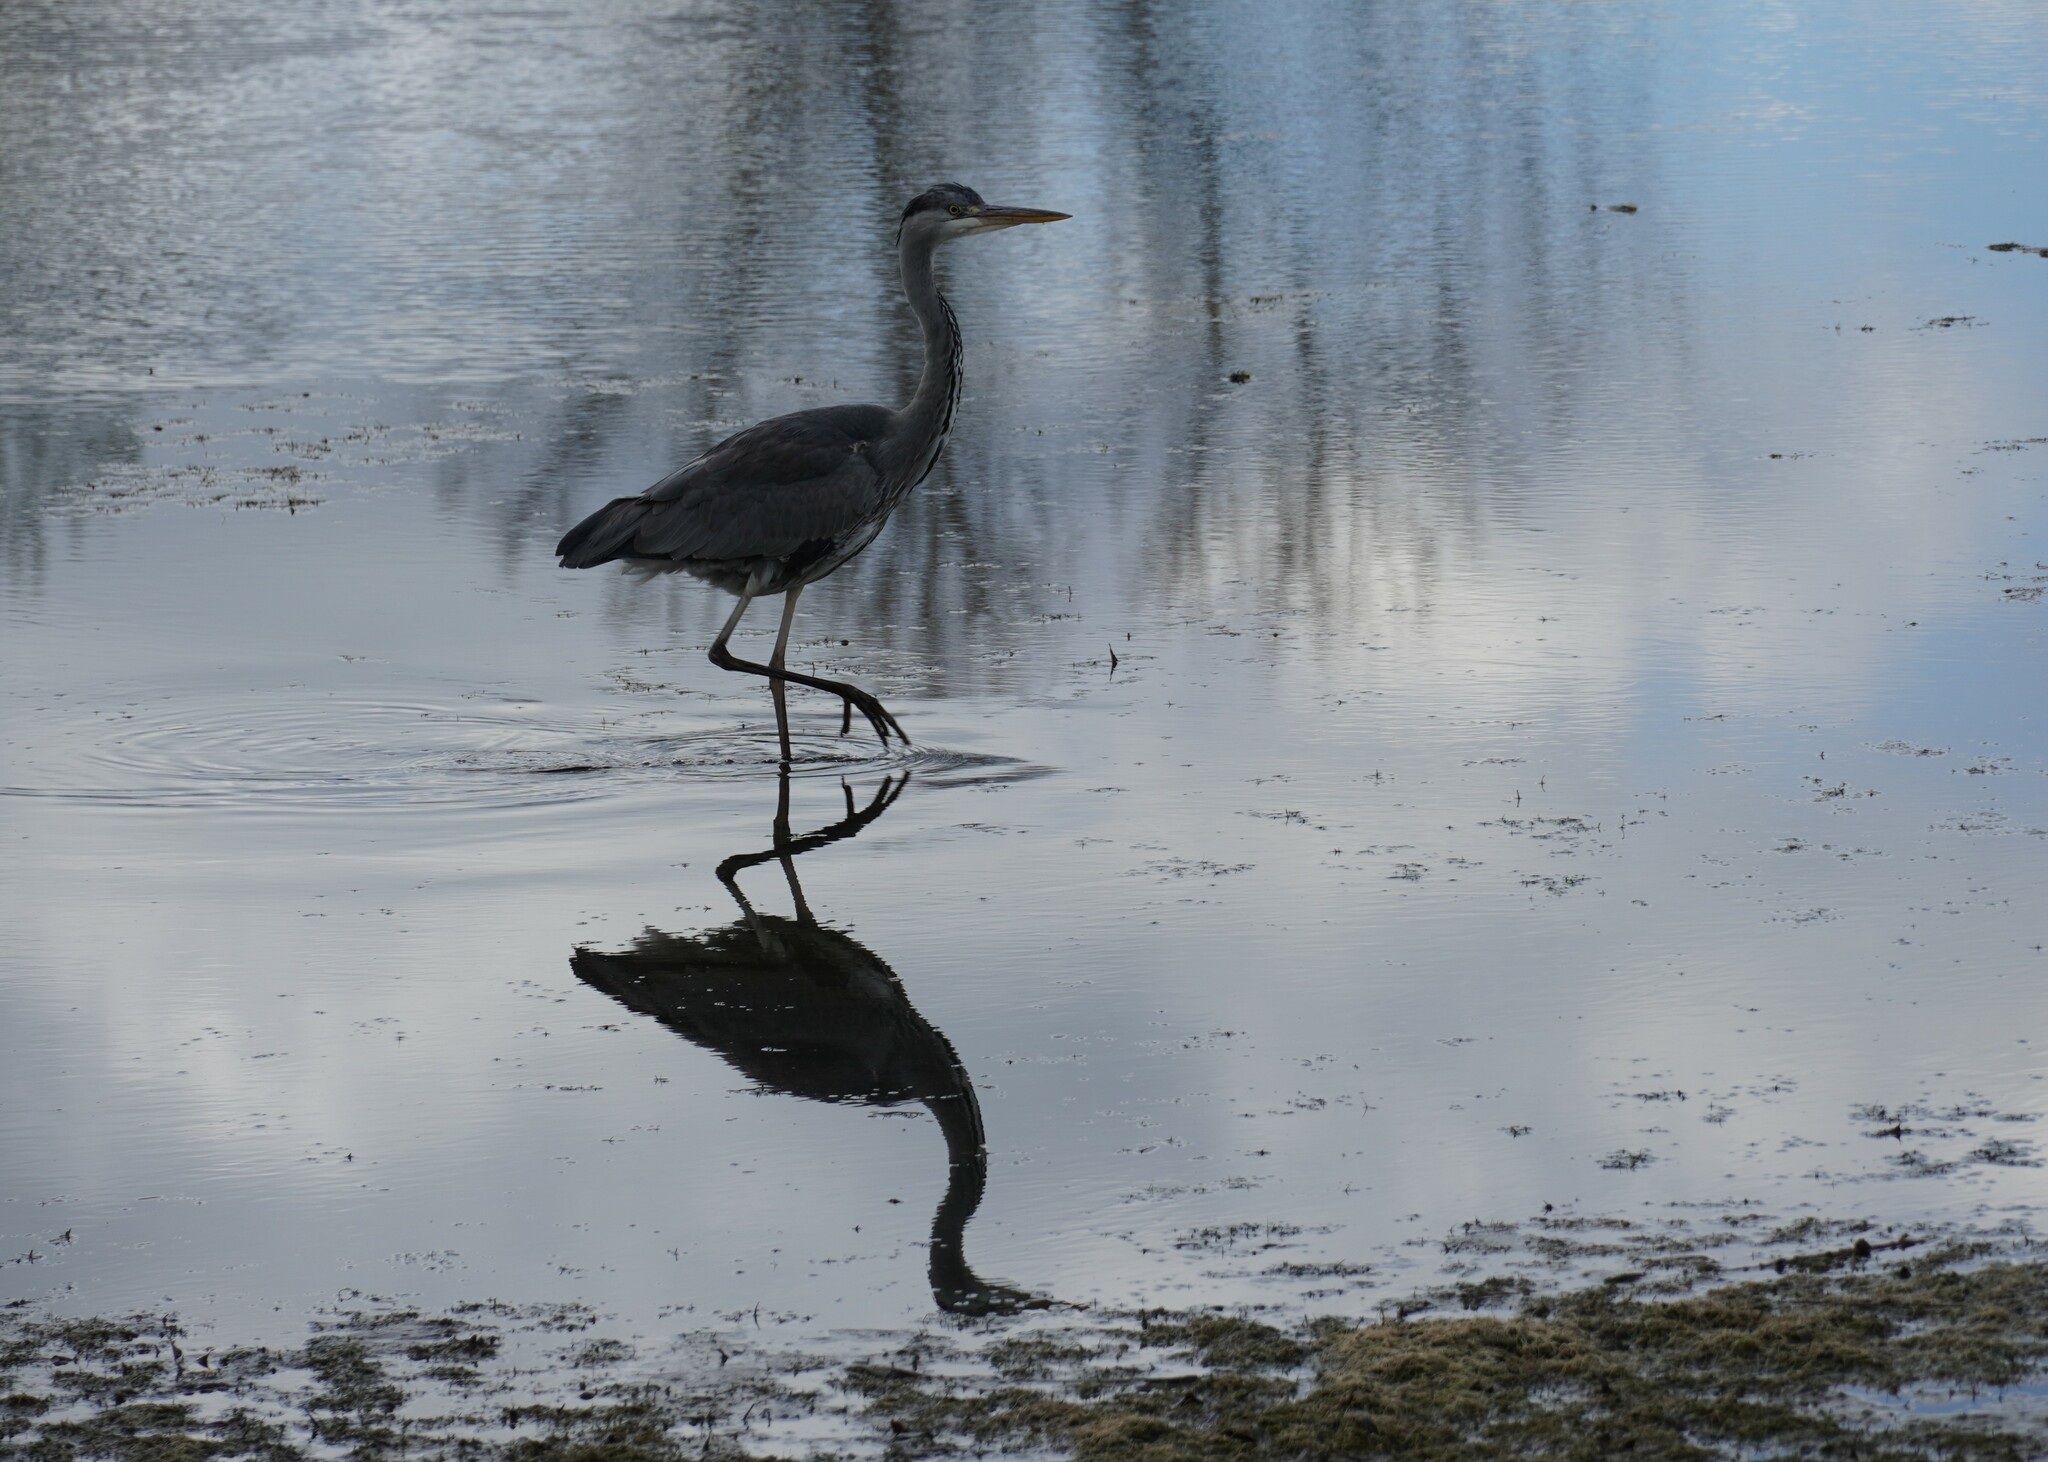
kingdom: Animalia
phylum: Chordata
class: Aves
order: Pelecaniformes
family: Ardeidae
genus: Ardea
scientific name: Ardea cinerea
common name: Grey heron
